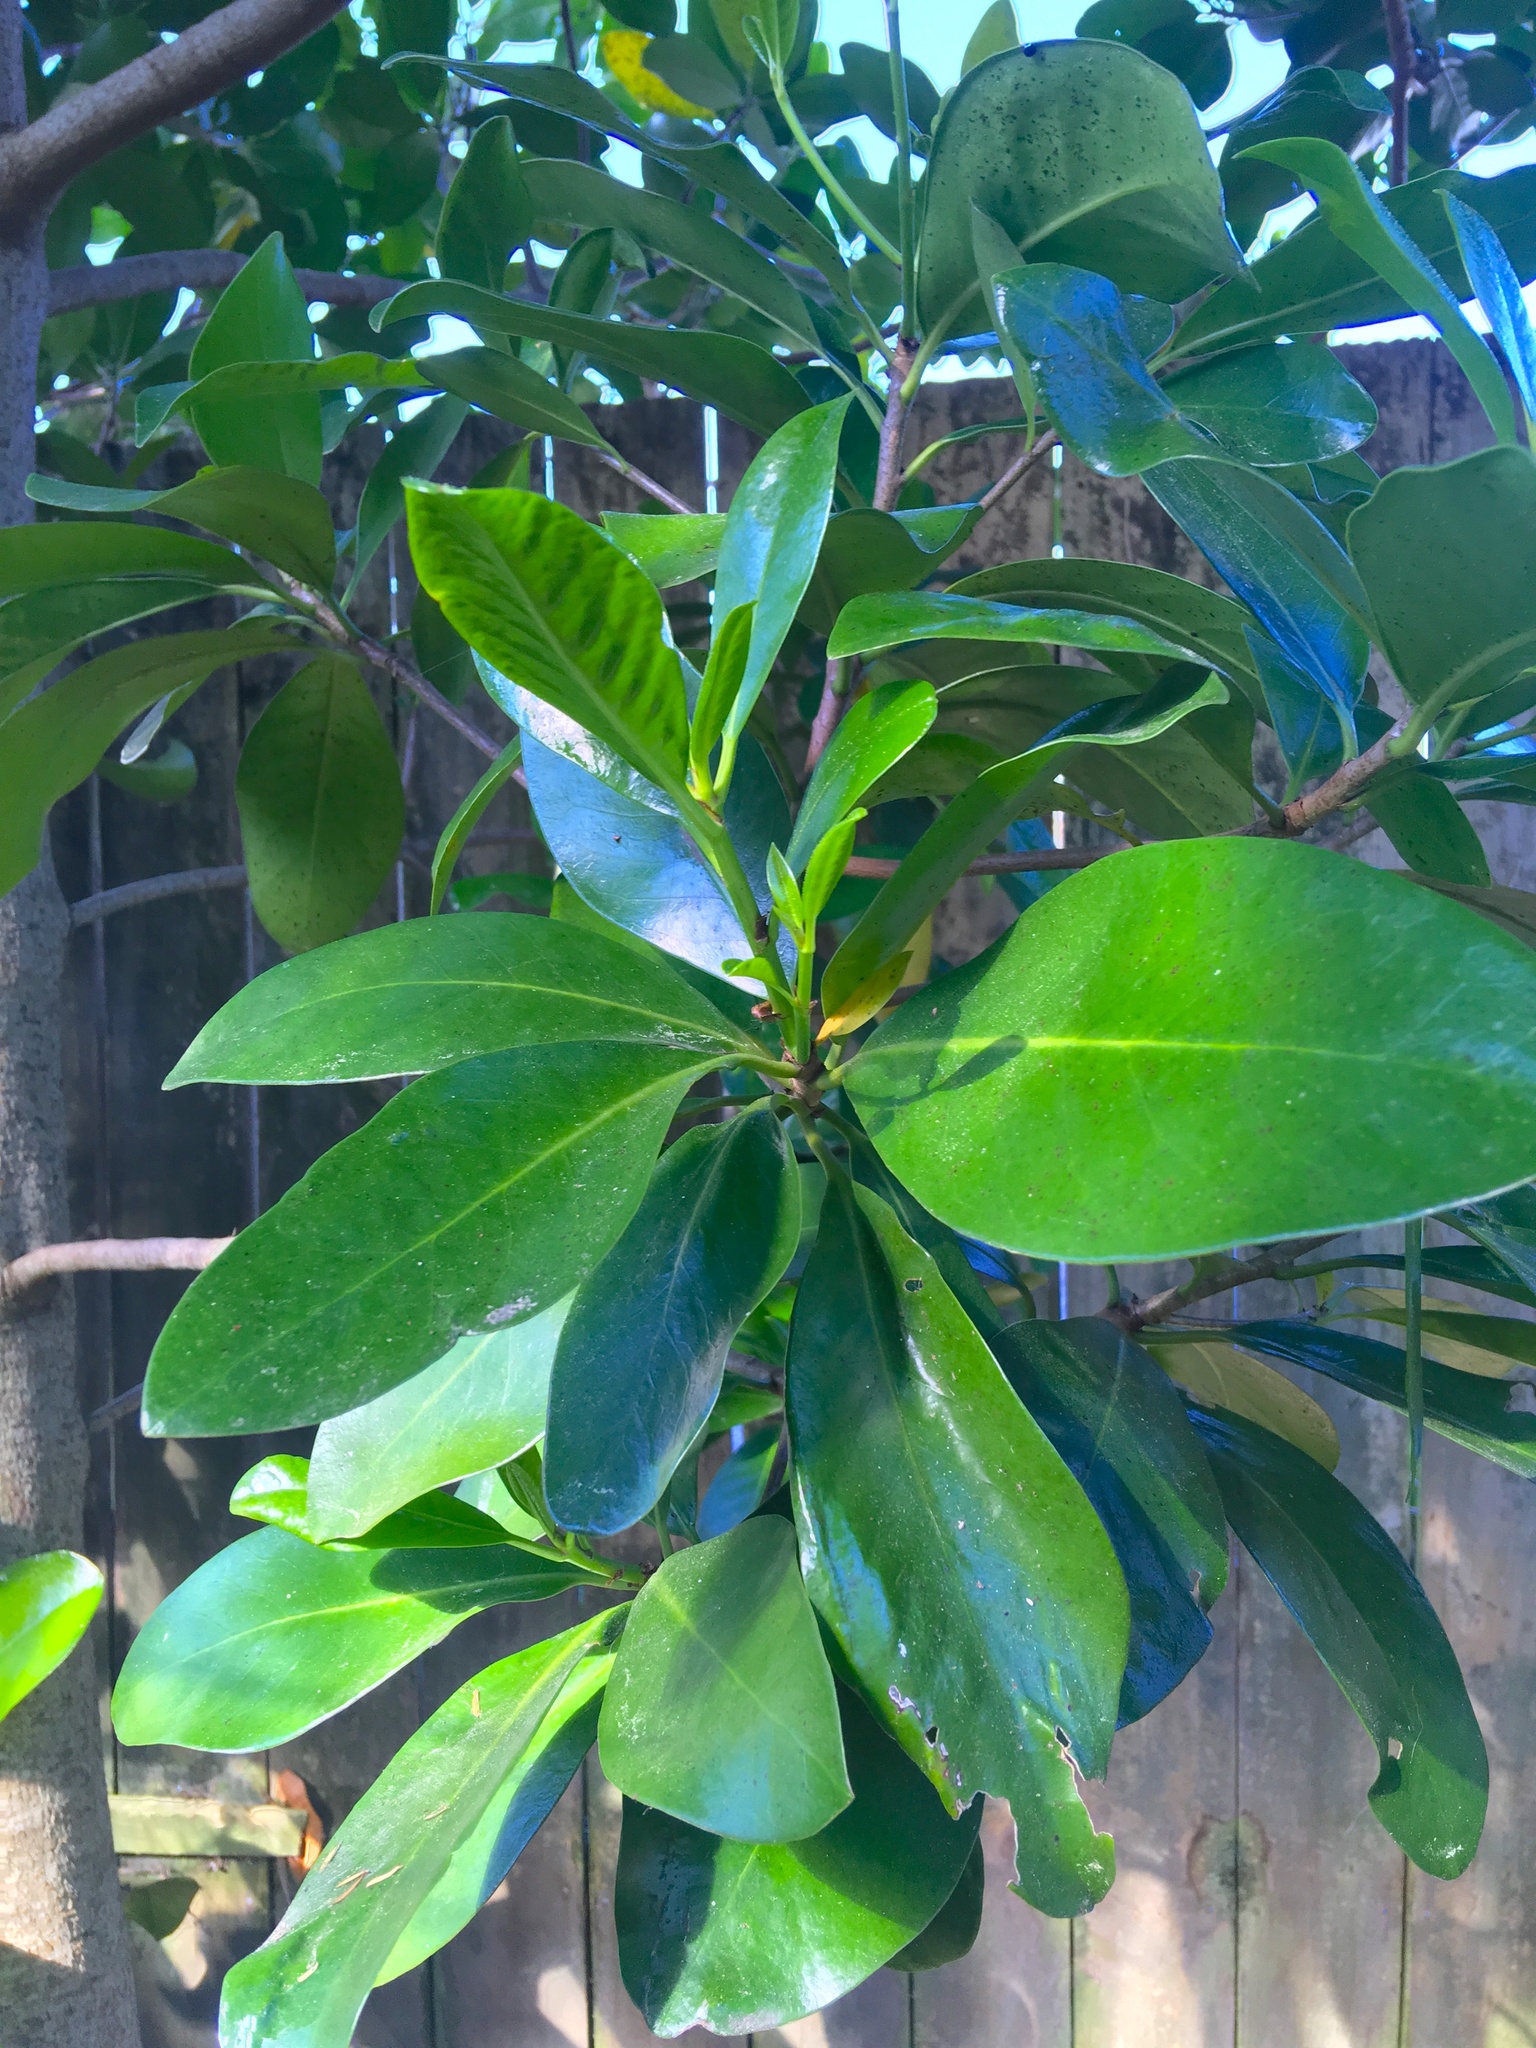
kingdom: Plantae
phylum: Tracheophyta
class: Magnoliopsida
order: Cucurbitales
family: Corynocarpaceae
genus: Corynocarpus
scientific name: Corynocarpus laevigatus
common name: New zealand laurel
